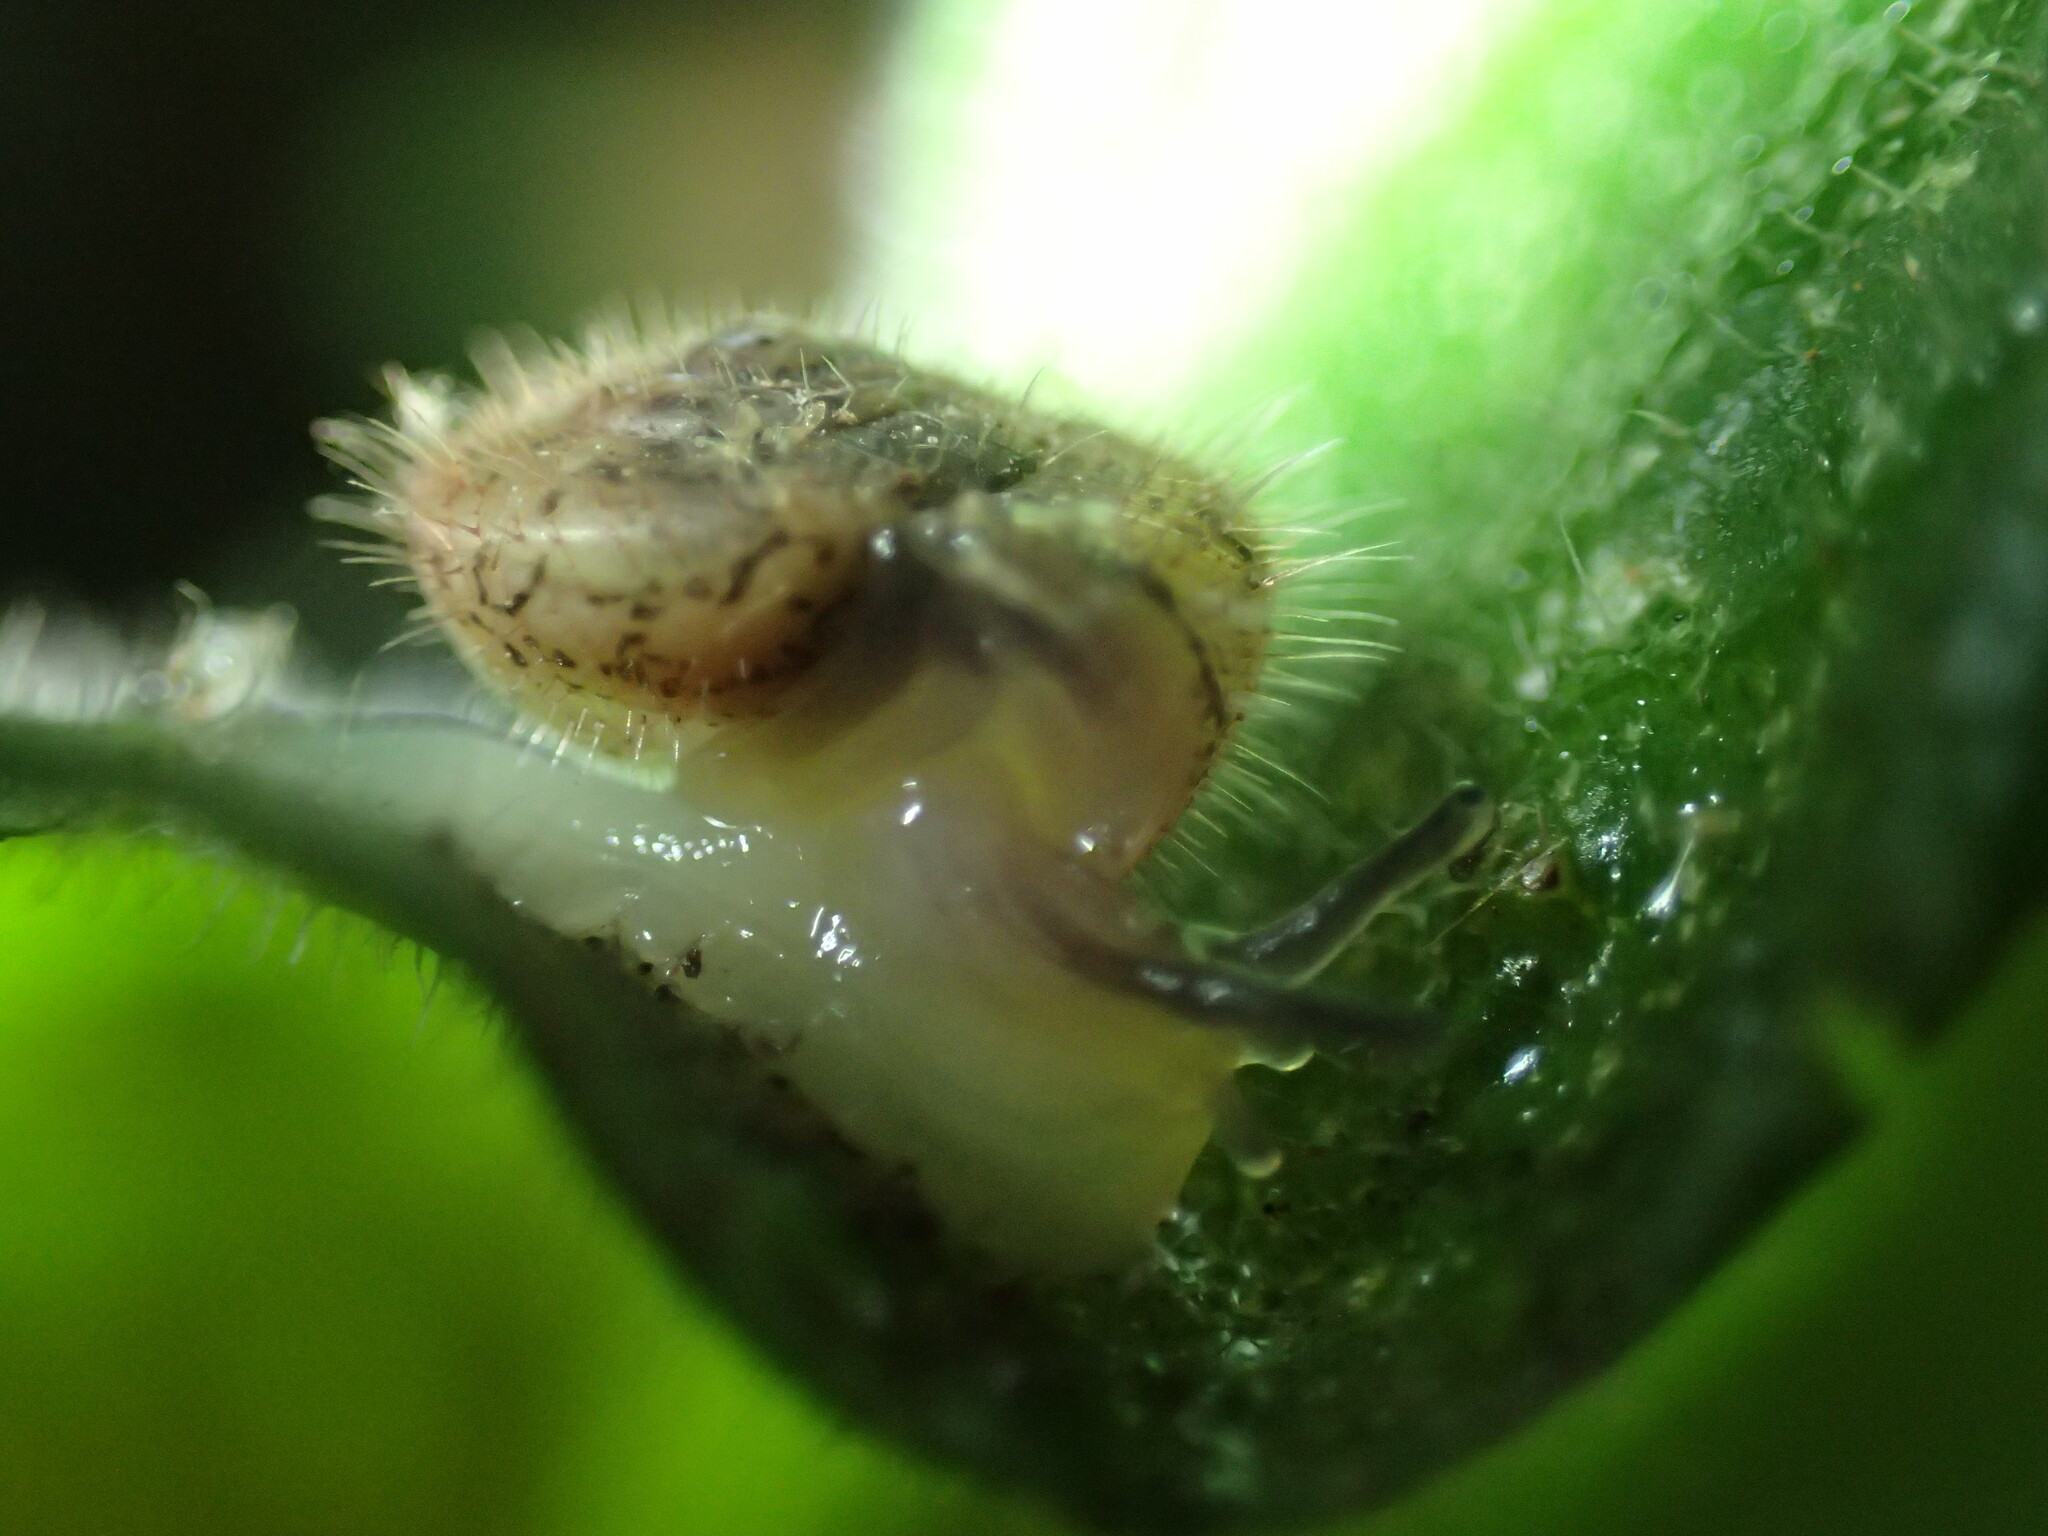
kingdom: Animalia
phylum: Mollusca
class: Gastropoda
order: Stylommatophora
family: Charopidae
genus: Chilocystis
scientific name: Chilocystis loveni
